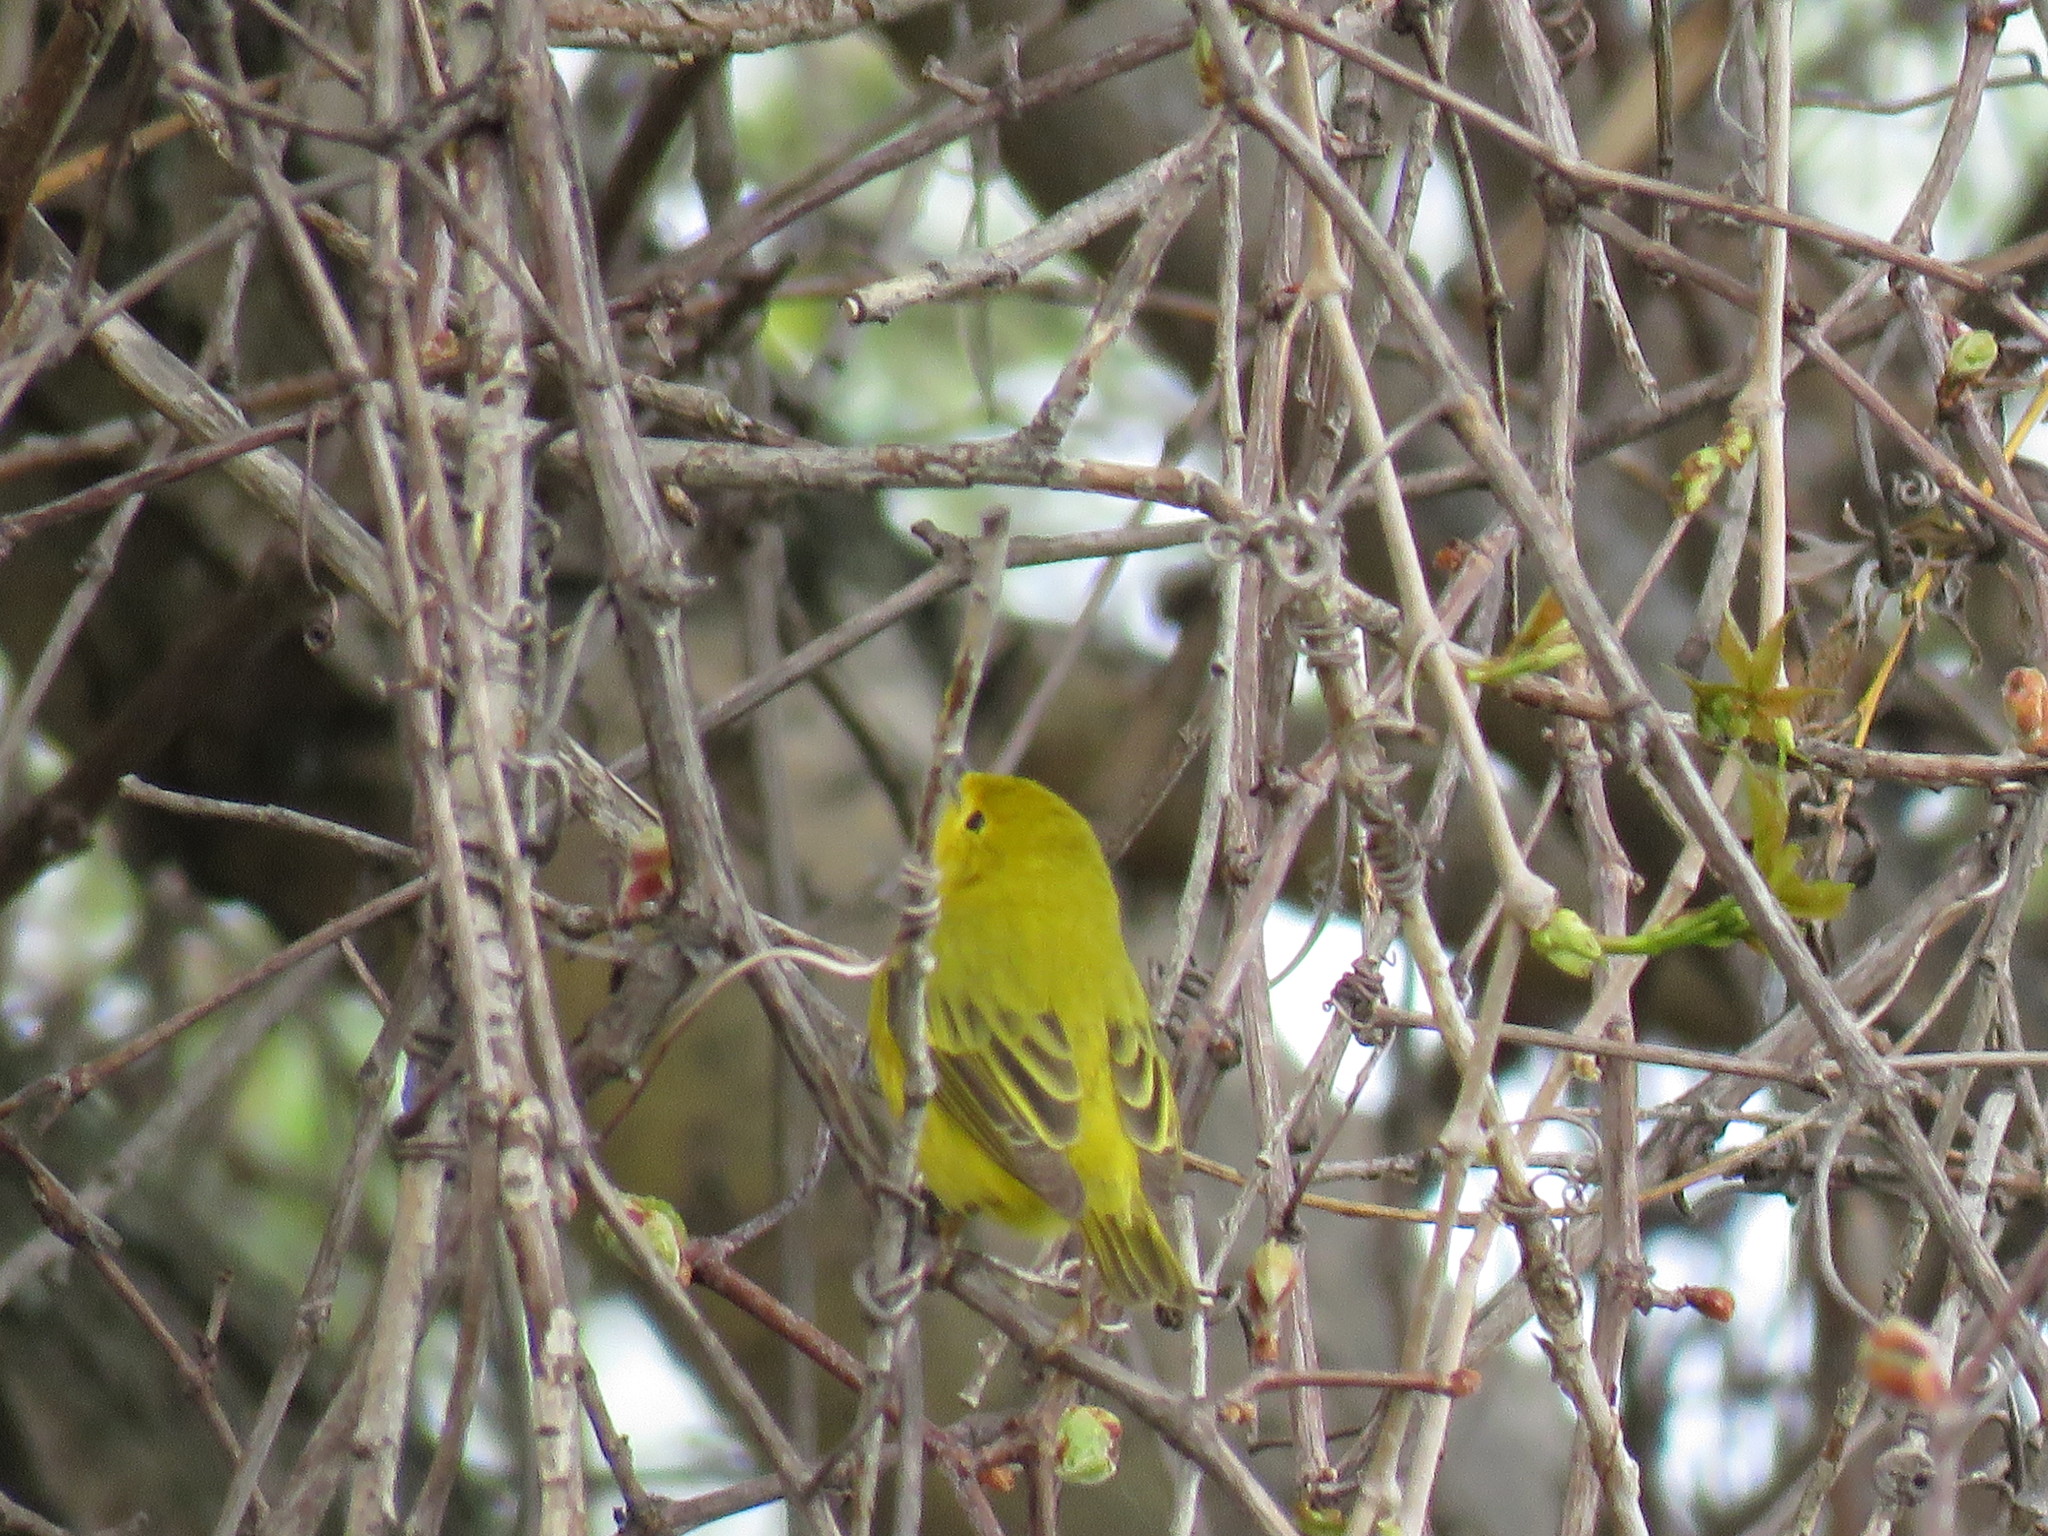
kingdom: Animalia
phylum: Chordata
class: Aves
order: Passeriformes
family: Parulidae
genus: Setophaga
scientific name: Setophaga petechia
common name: Yellow warbler
